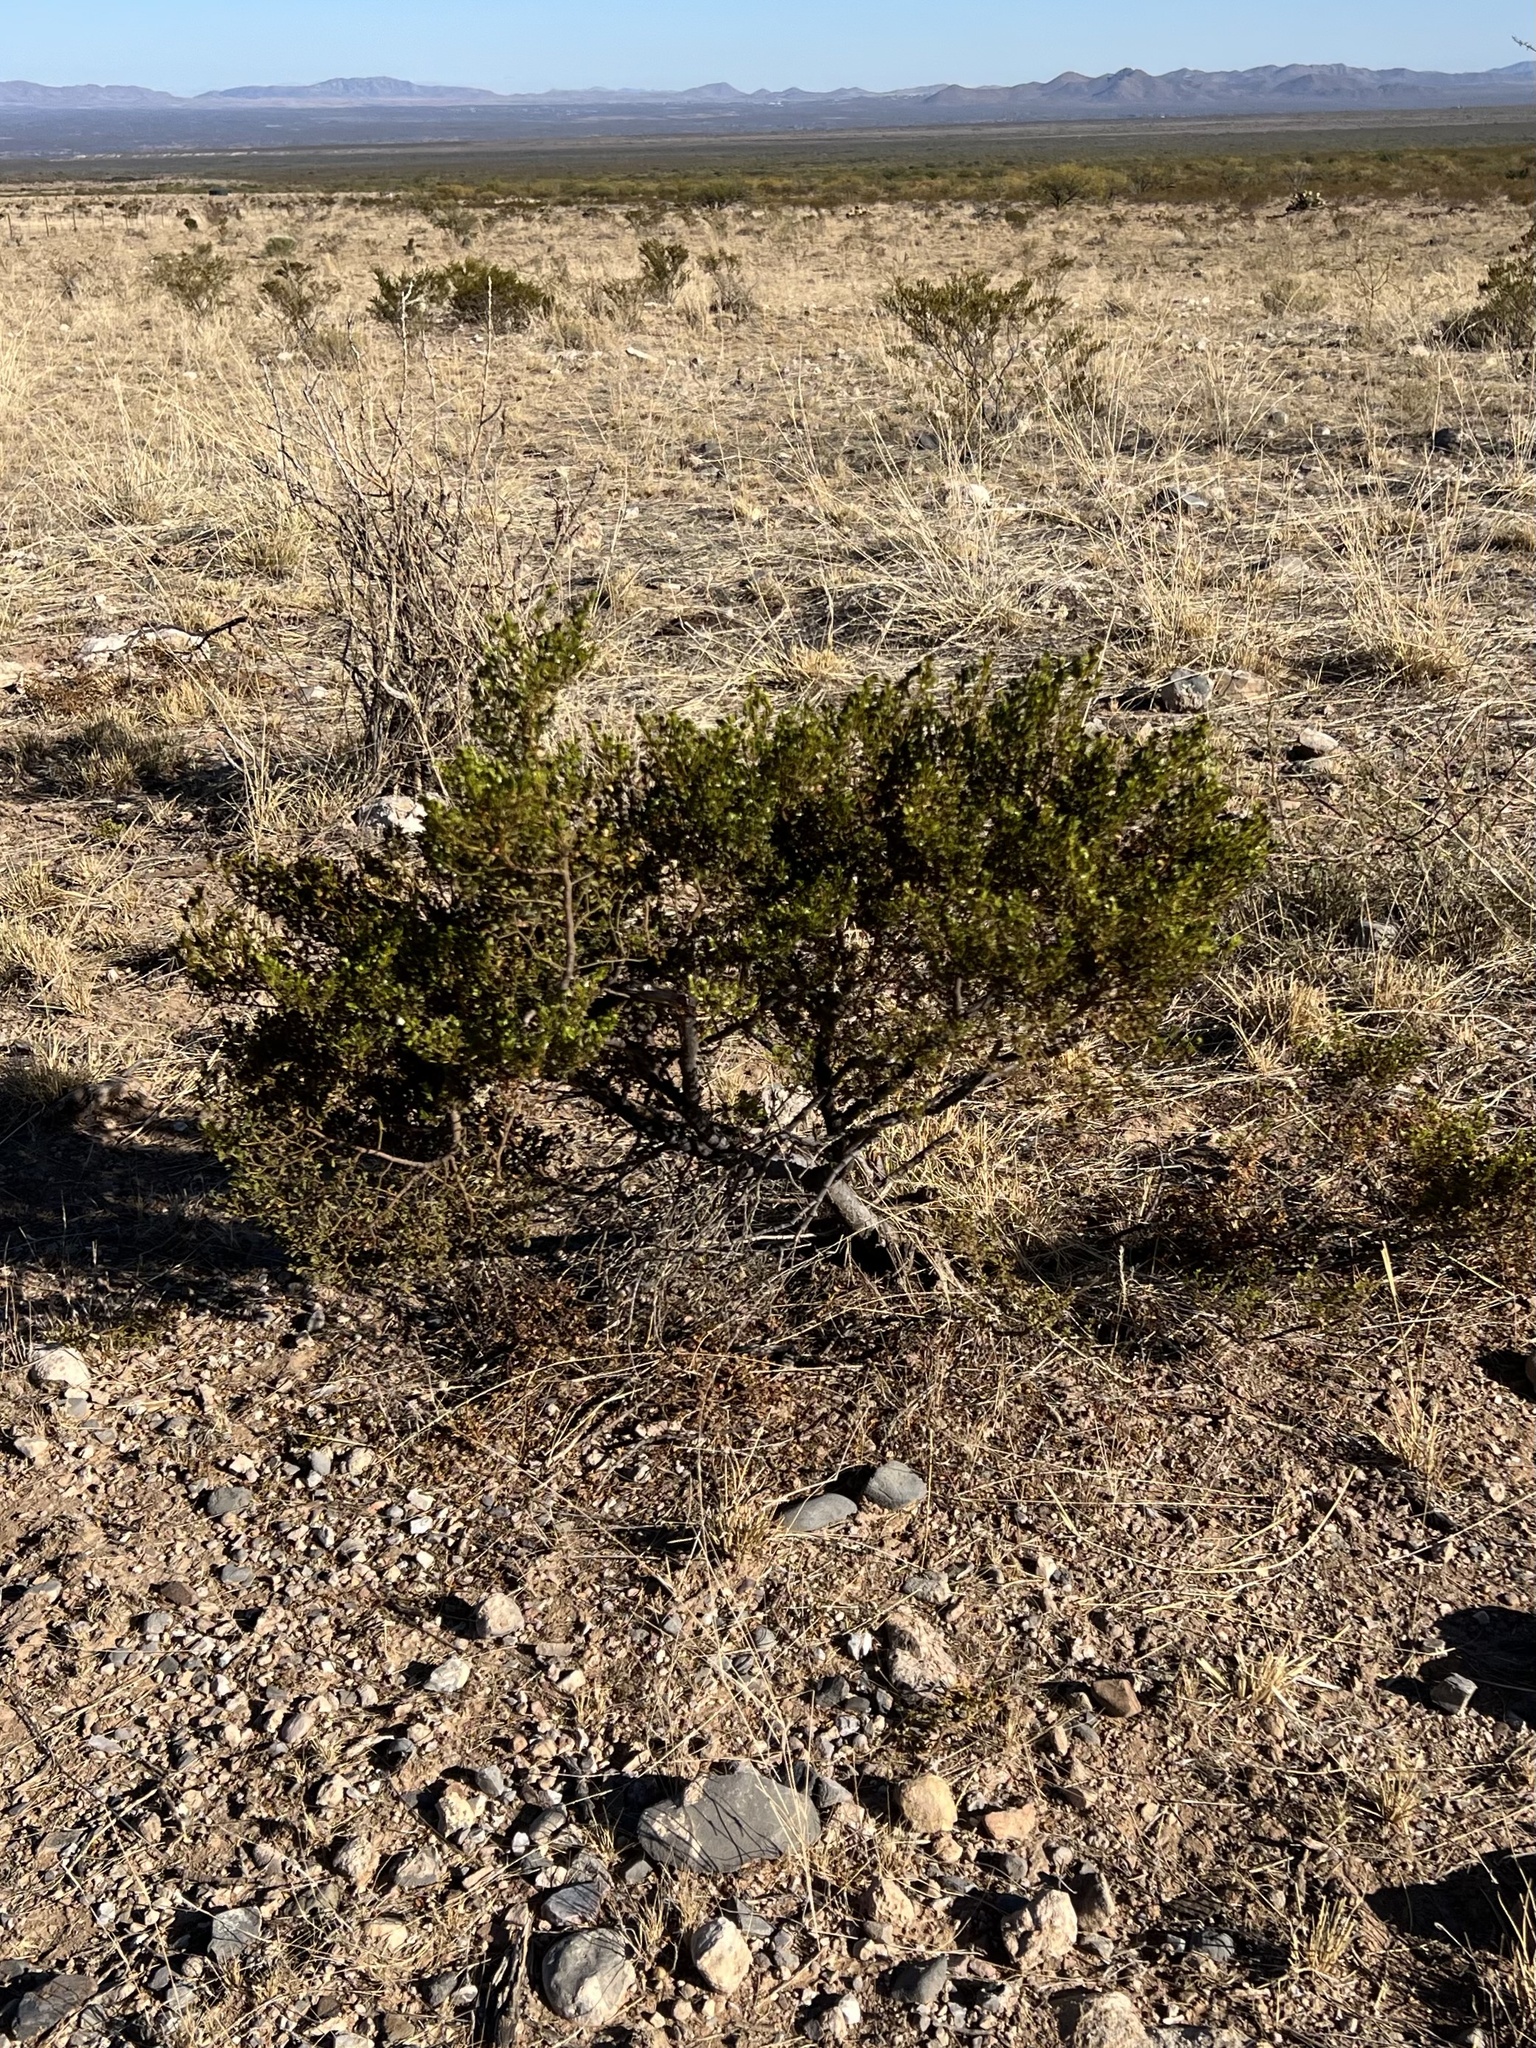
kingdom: Plantae
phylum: Tracheophyta
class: Magnoliopsida
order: Zygophyllales
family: Zygophyllaceae
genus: Larrea
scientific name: Larrea tridentata
